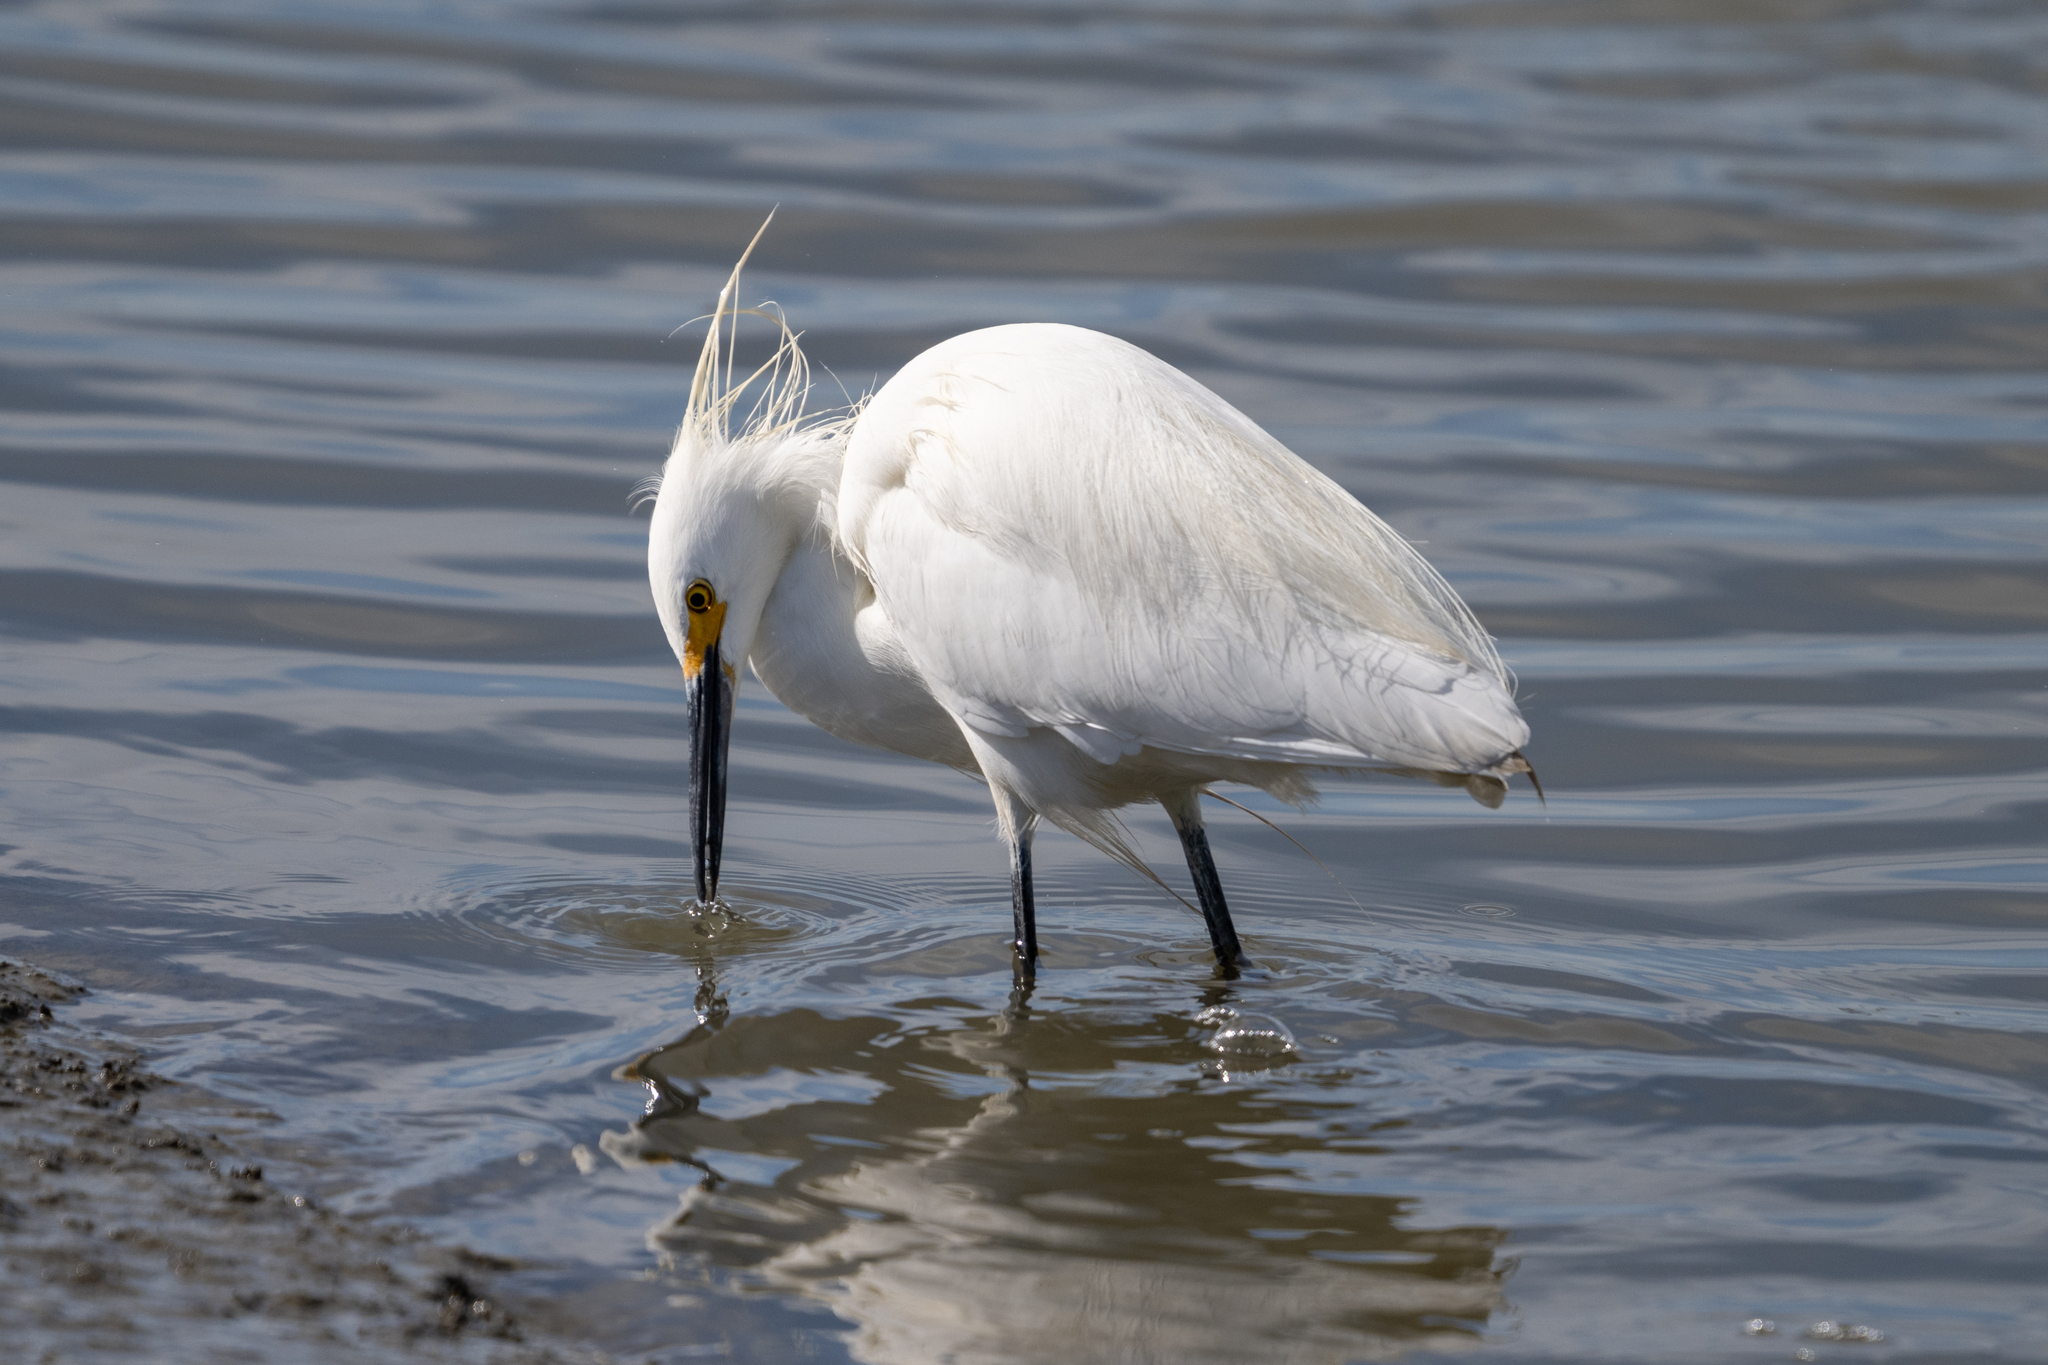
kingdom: Animalia
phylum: Chordata
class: Aves
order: Pelecaniformes
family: Ardeidae
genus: Egretta
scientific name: Egretta thula
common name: Snowy egret
